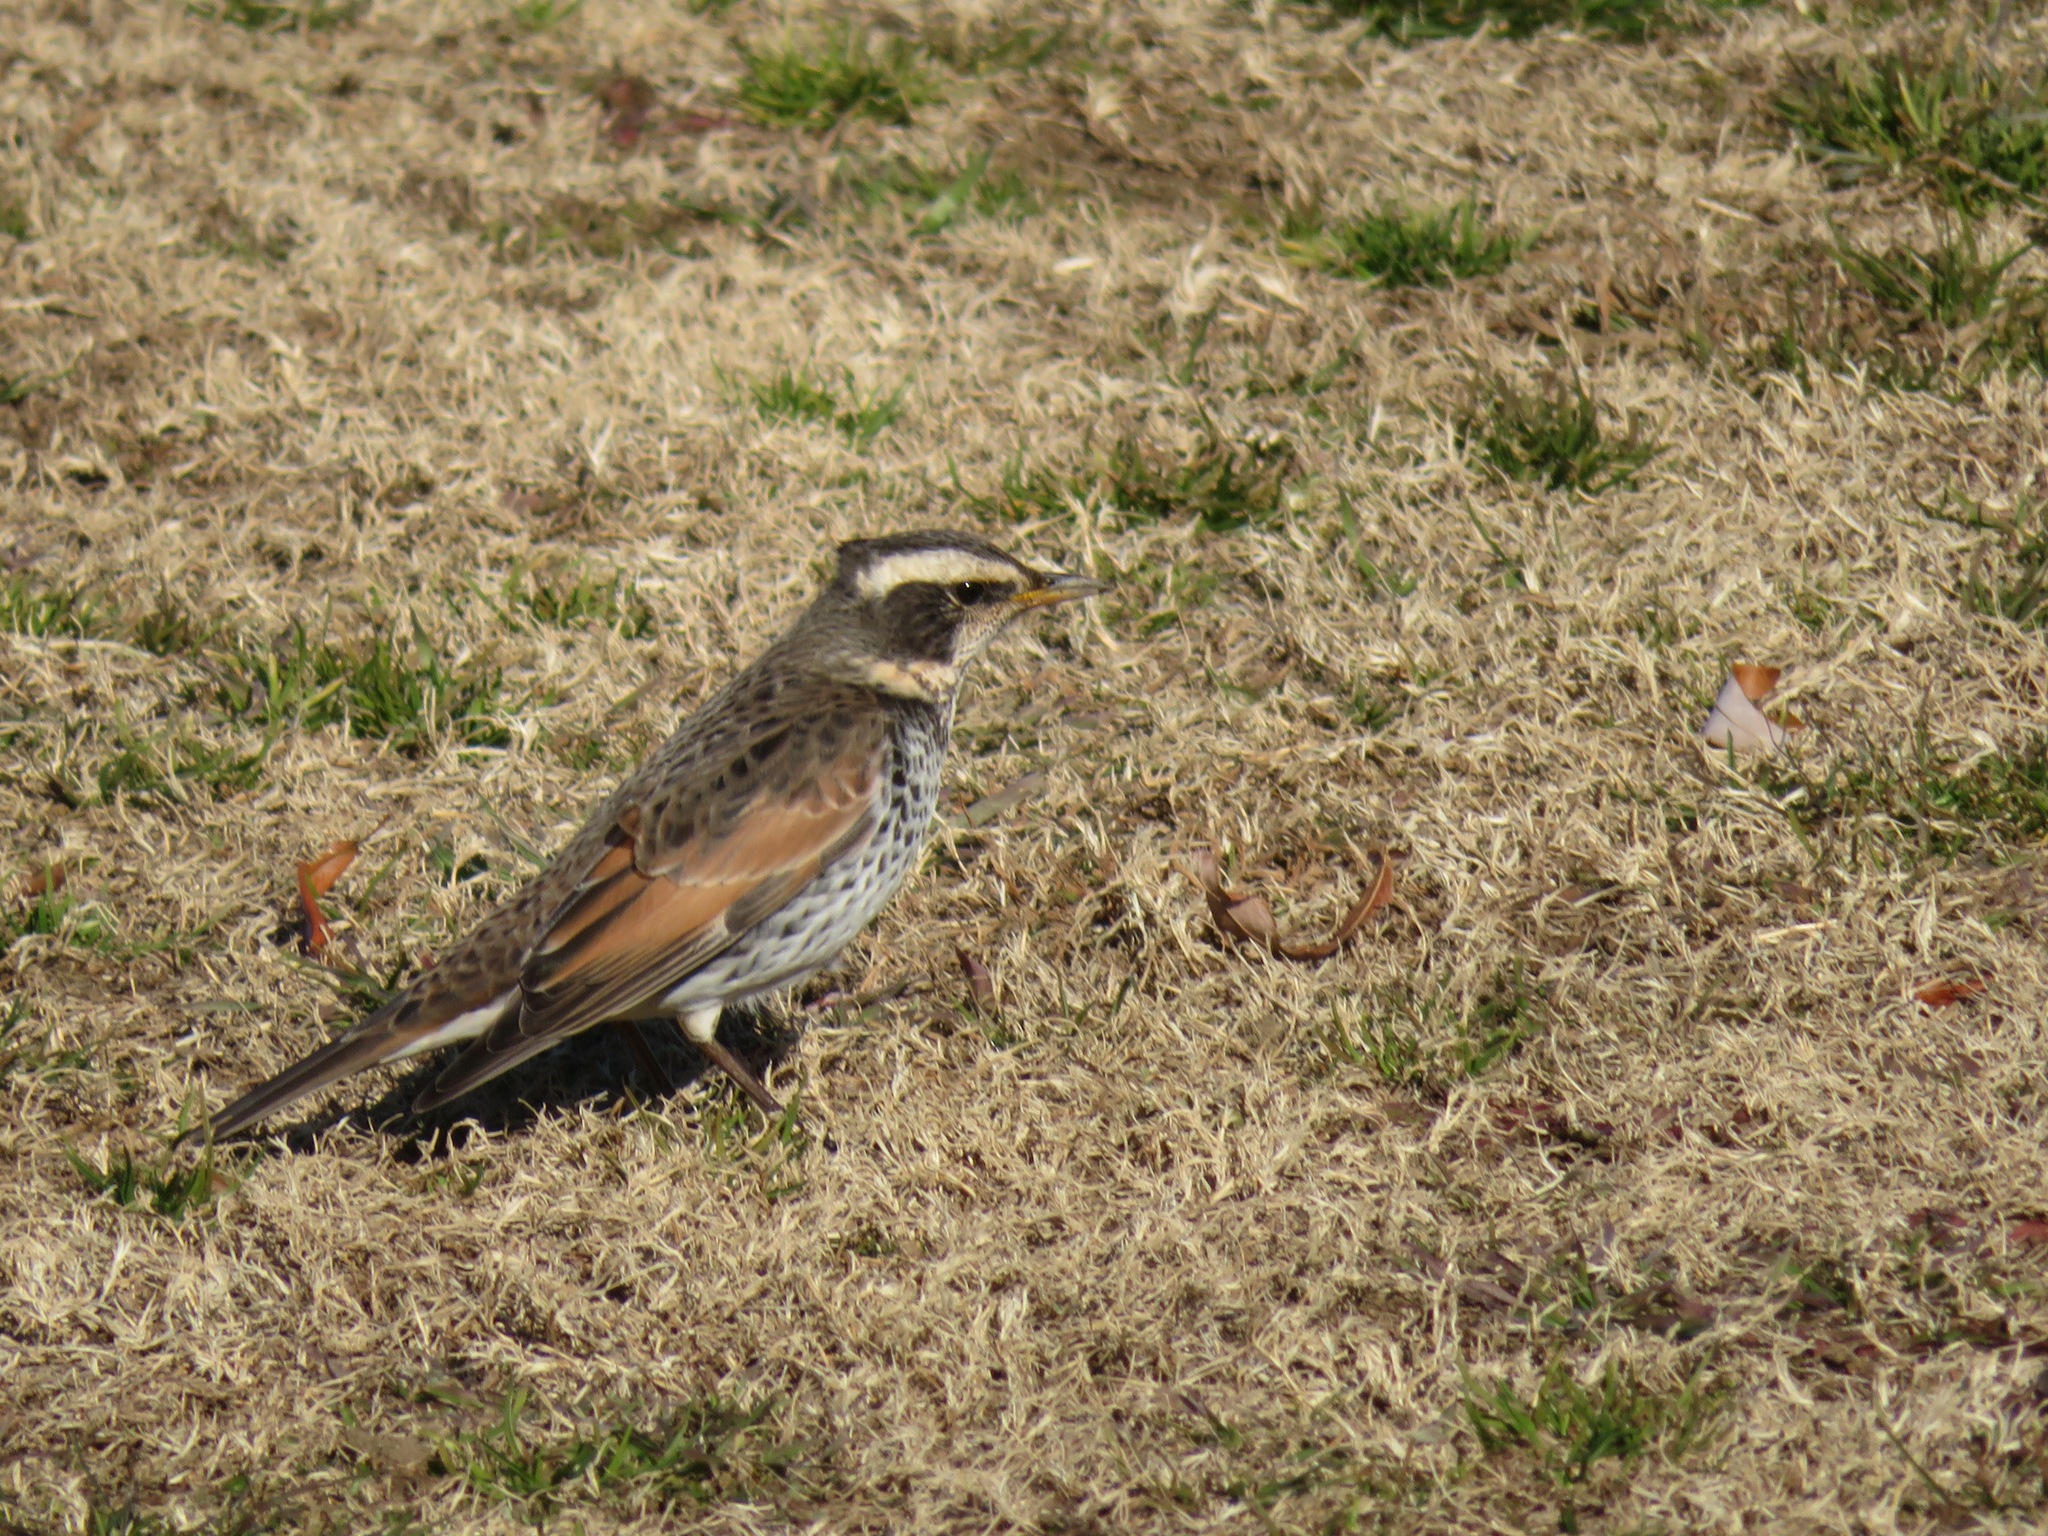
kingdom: Animalia
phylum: Chordata
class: Aves
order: Passeriformes
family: Turdidae
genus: Turdus
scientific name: Turdus eunomus
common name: Dusky thrush
